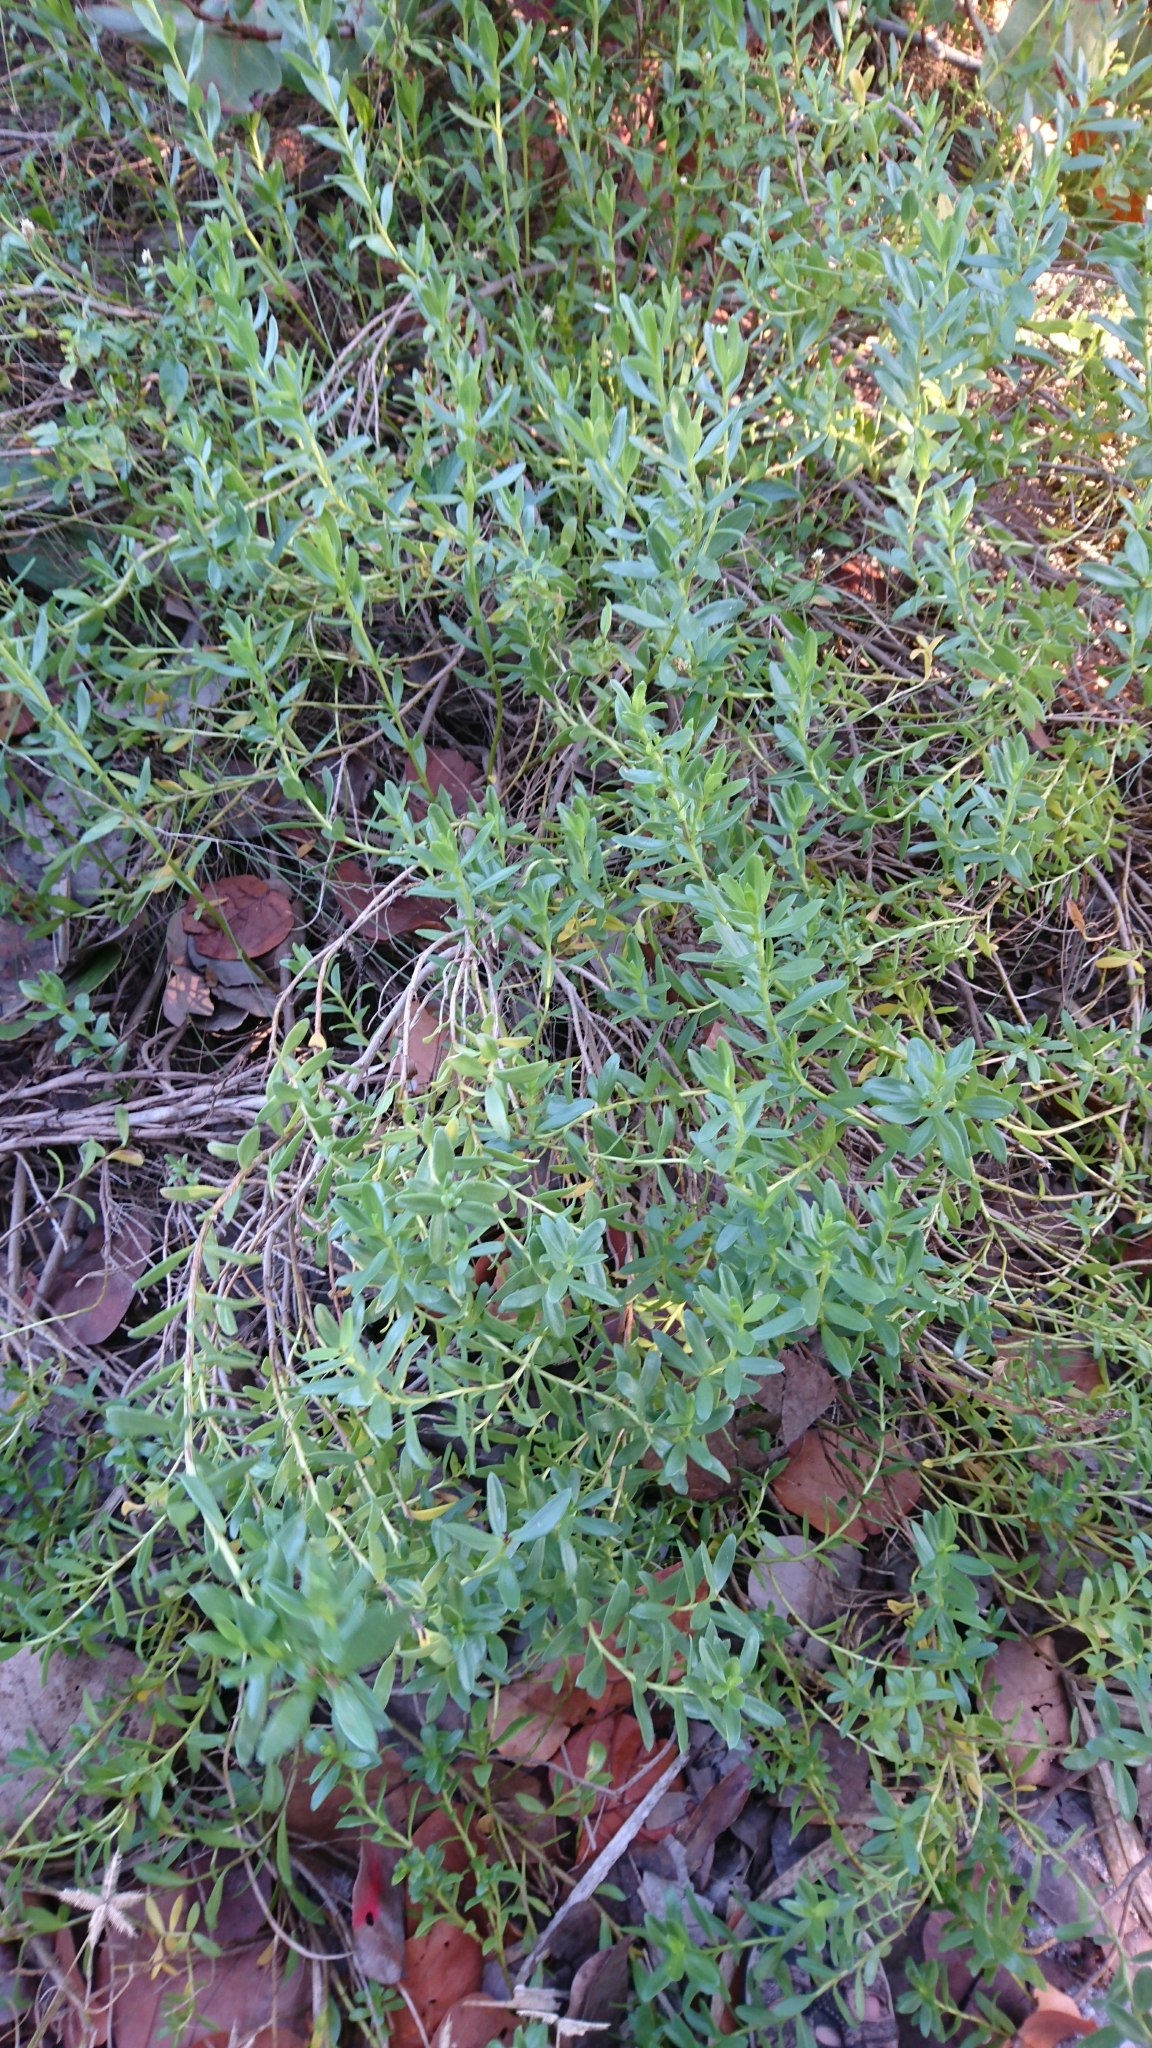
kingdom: Plantae
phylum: Tracheophyta
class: Magnoliopsida
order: Asterales
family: Asteraceae
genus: Iva
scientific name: Iva imbricata
